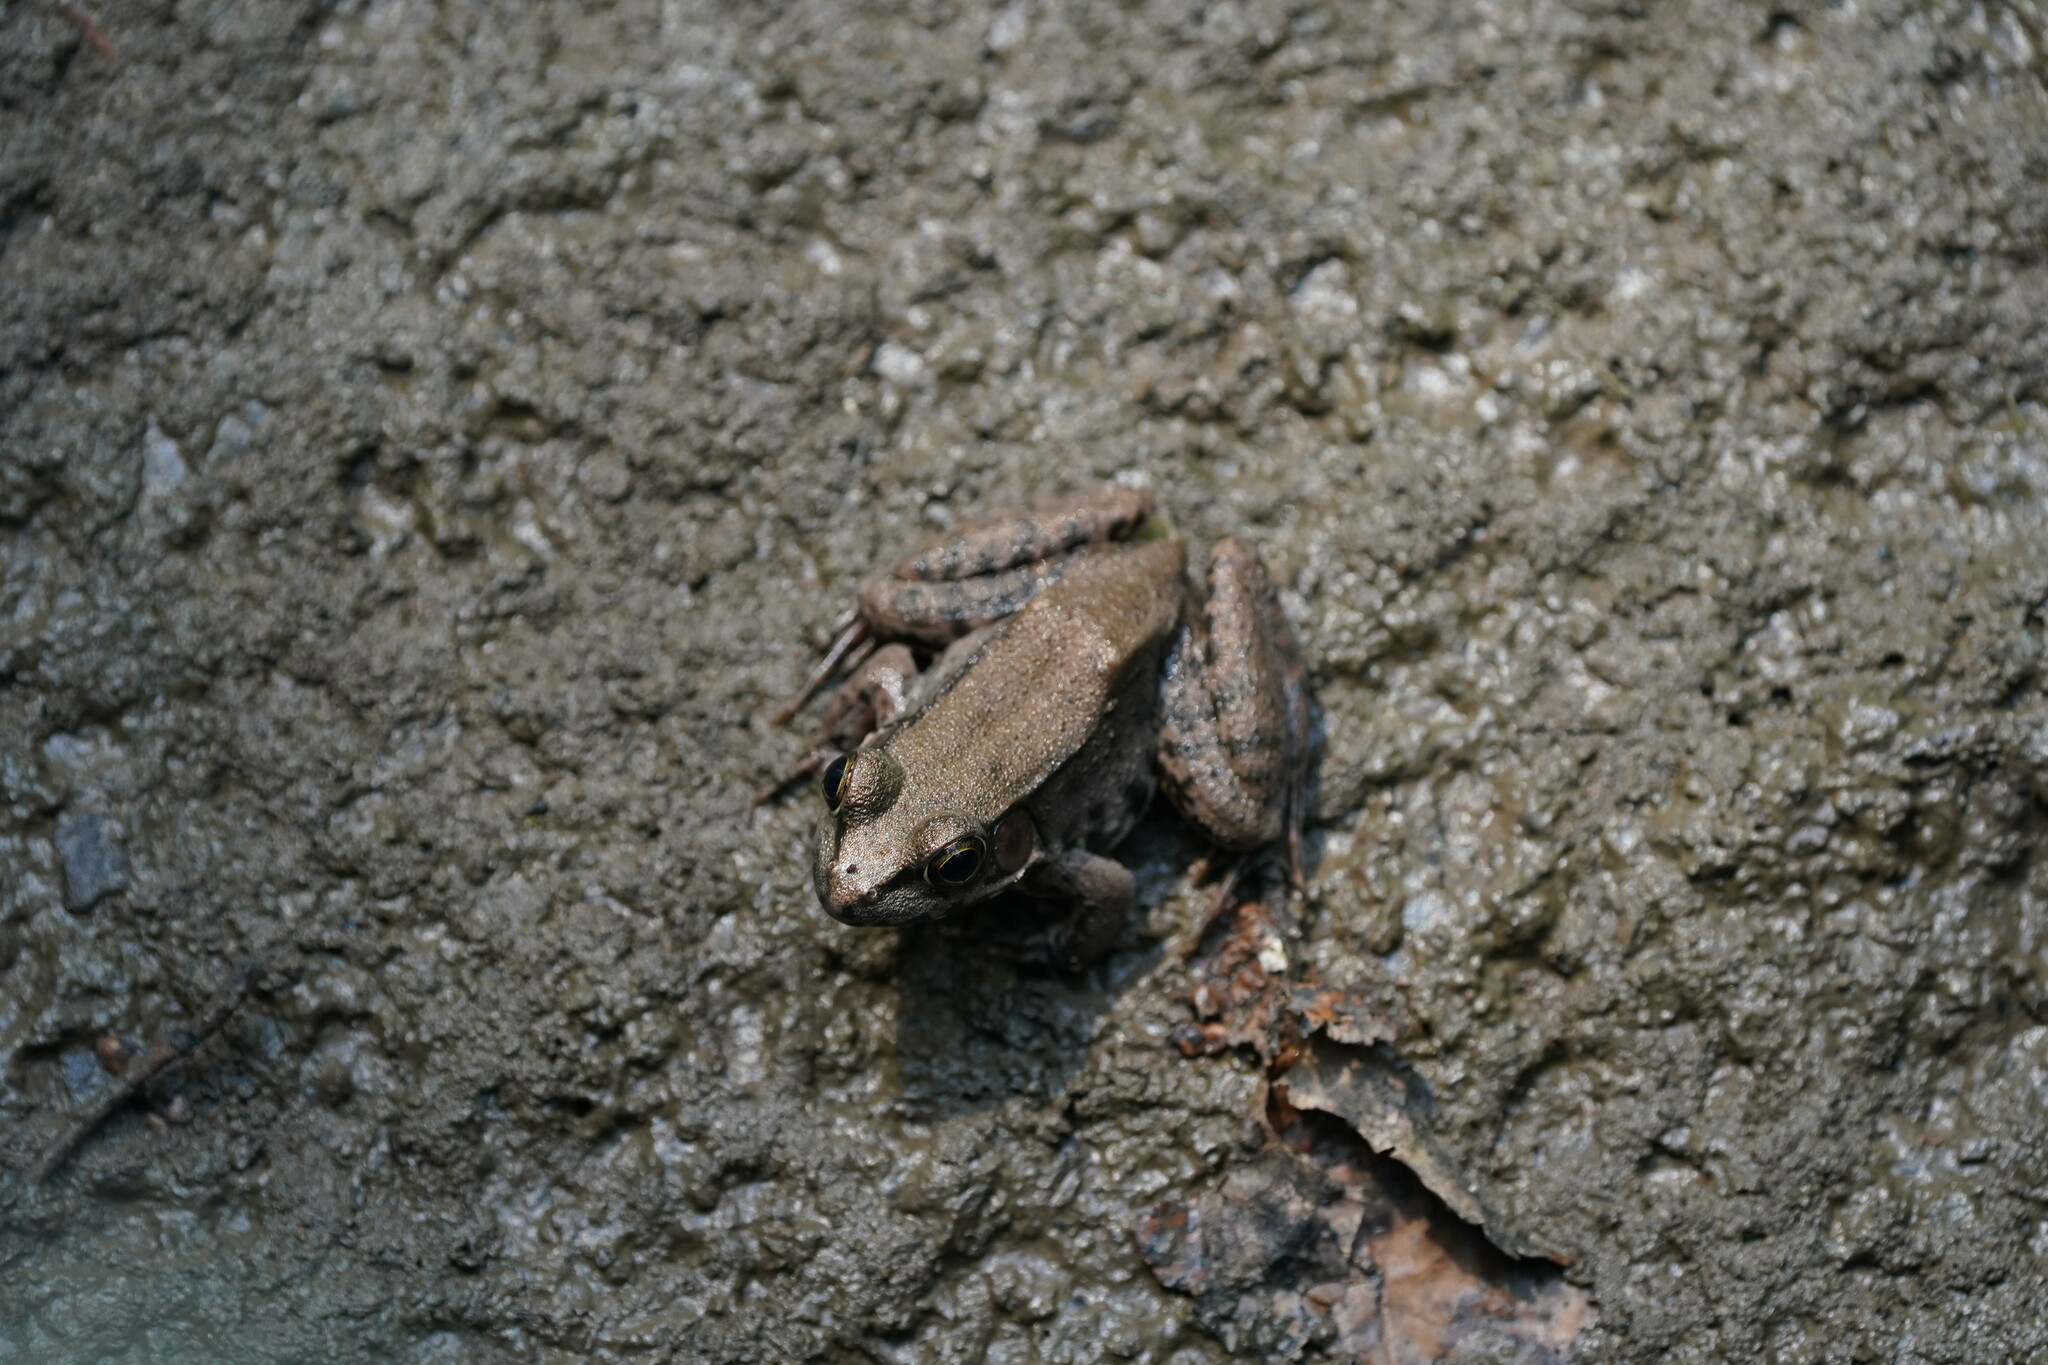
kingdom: Animalia
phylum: Chordata
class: Amphibia
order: Anura
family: Ranidae
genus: Lithobates
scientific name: Lithobates clamitans
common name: Green frog
